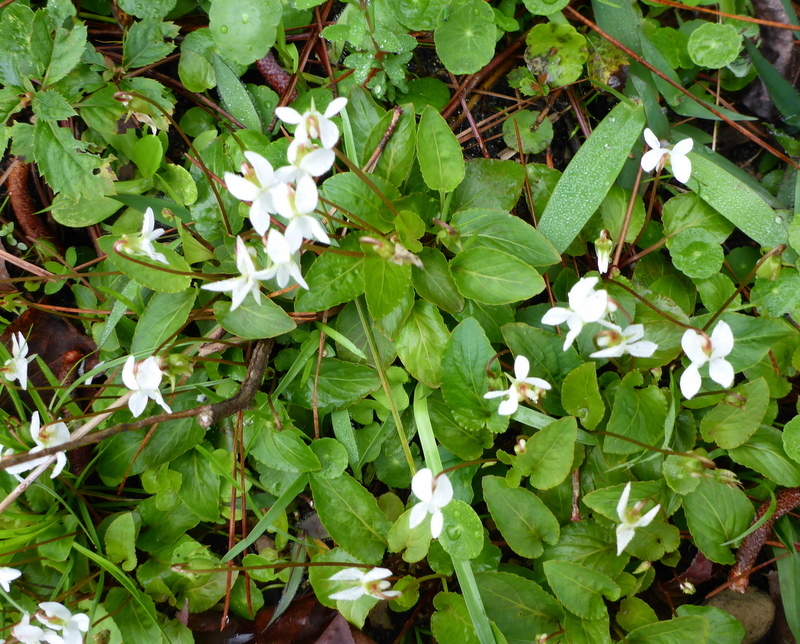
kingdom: Plantae
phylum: Tracheophyta
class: Magnoliopsida
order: Malpighiales
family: Violaceae
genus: Viola
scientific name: Viola primulifolia
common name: Primrose-leaf violet
